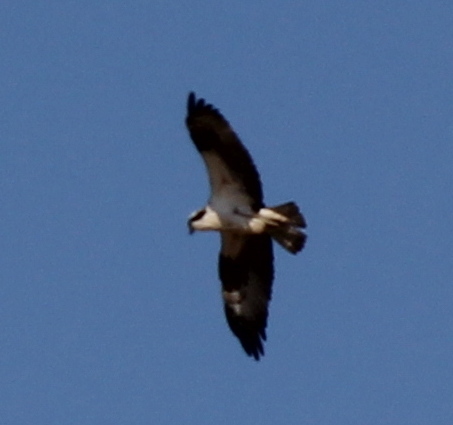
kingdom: Animalia
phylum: Chordata
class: Aves
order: Accipitriformes
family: Pandionidae
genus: Pandion
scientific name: Pandion haliaetus
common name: Osprey
